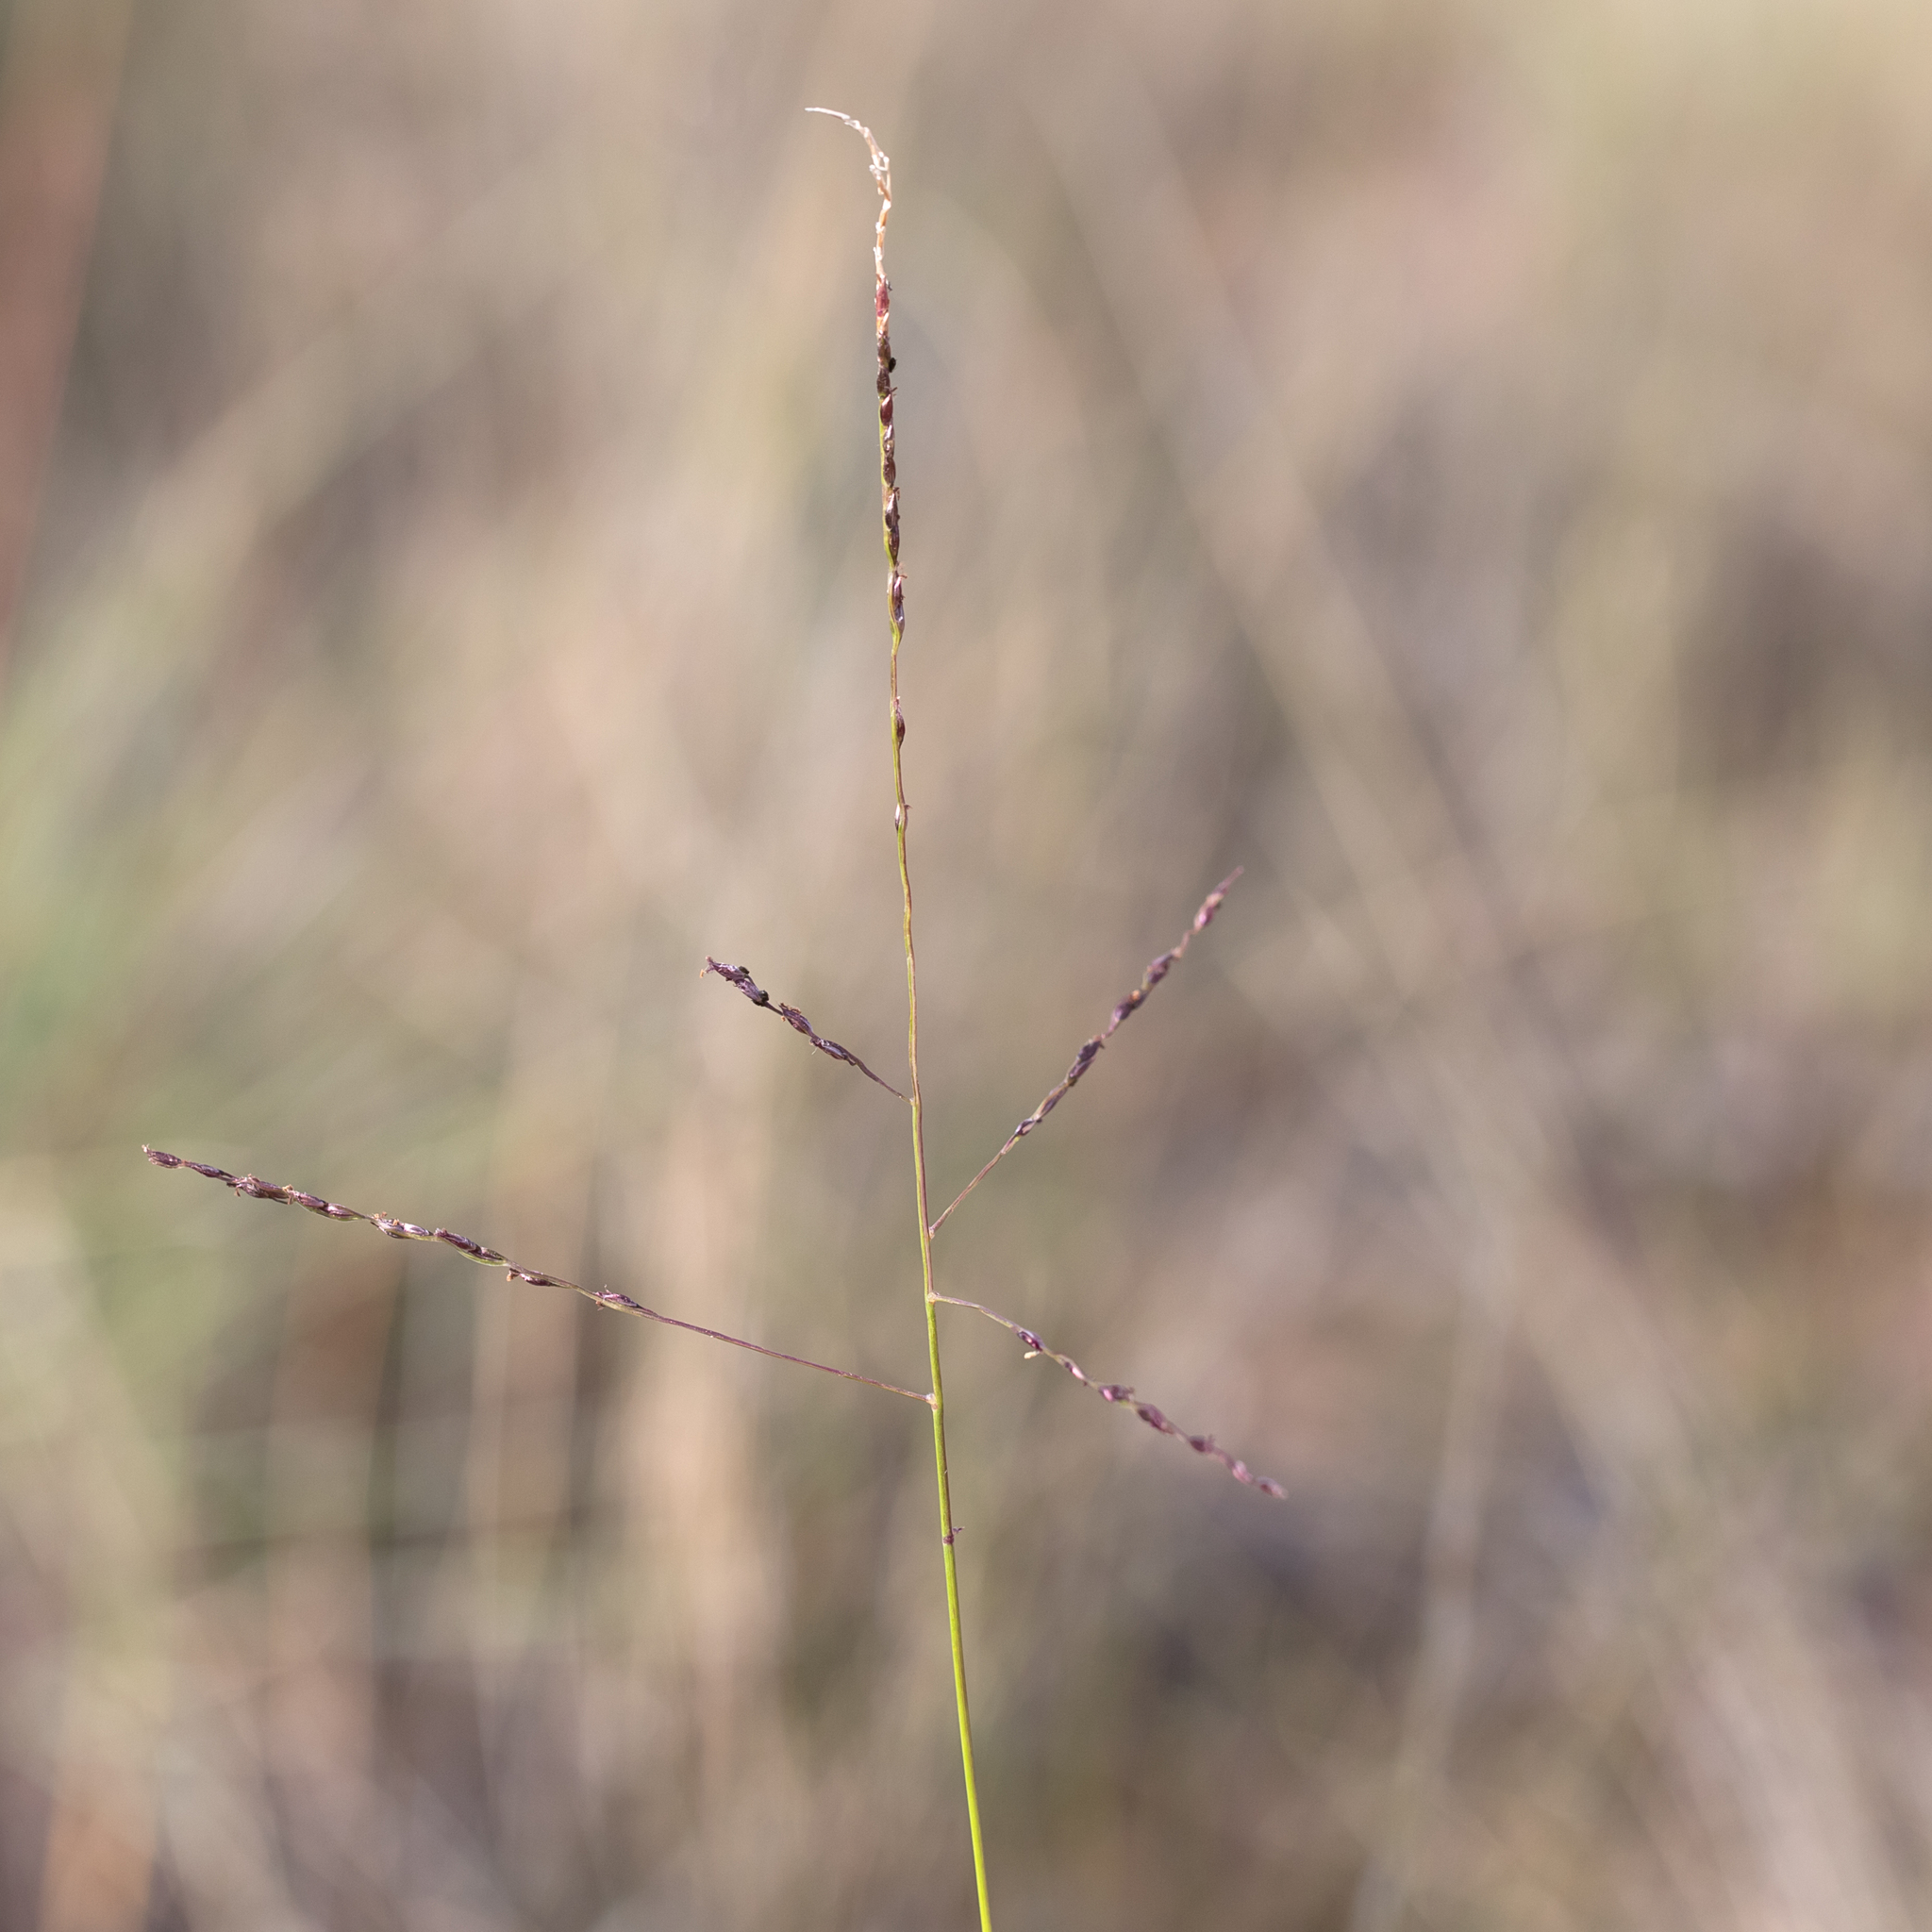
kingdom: Plantae
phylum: Tracheophyta
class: Liliopsida
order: Poales
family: Poaceae
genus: Digitaria
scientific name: Digitaria divaricatissima
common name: Crabgrass
